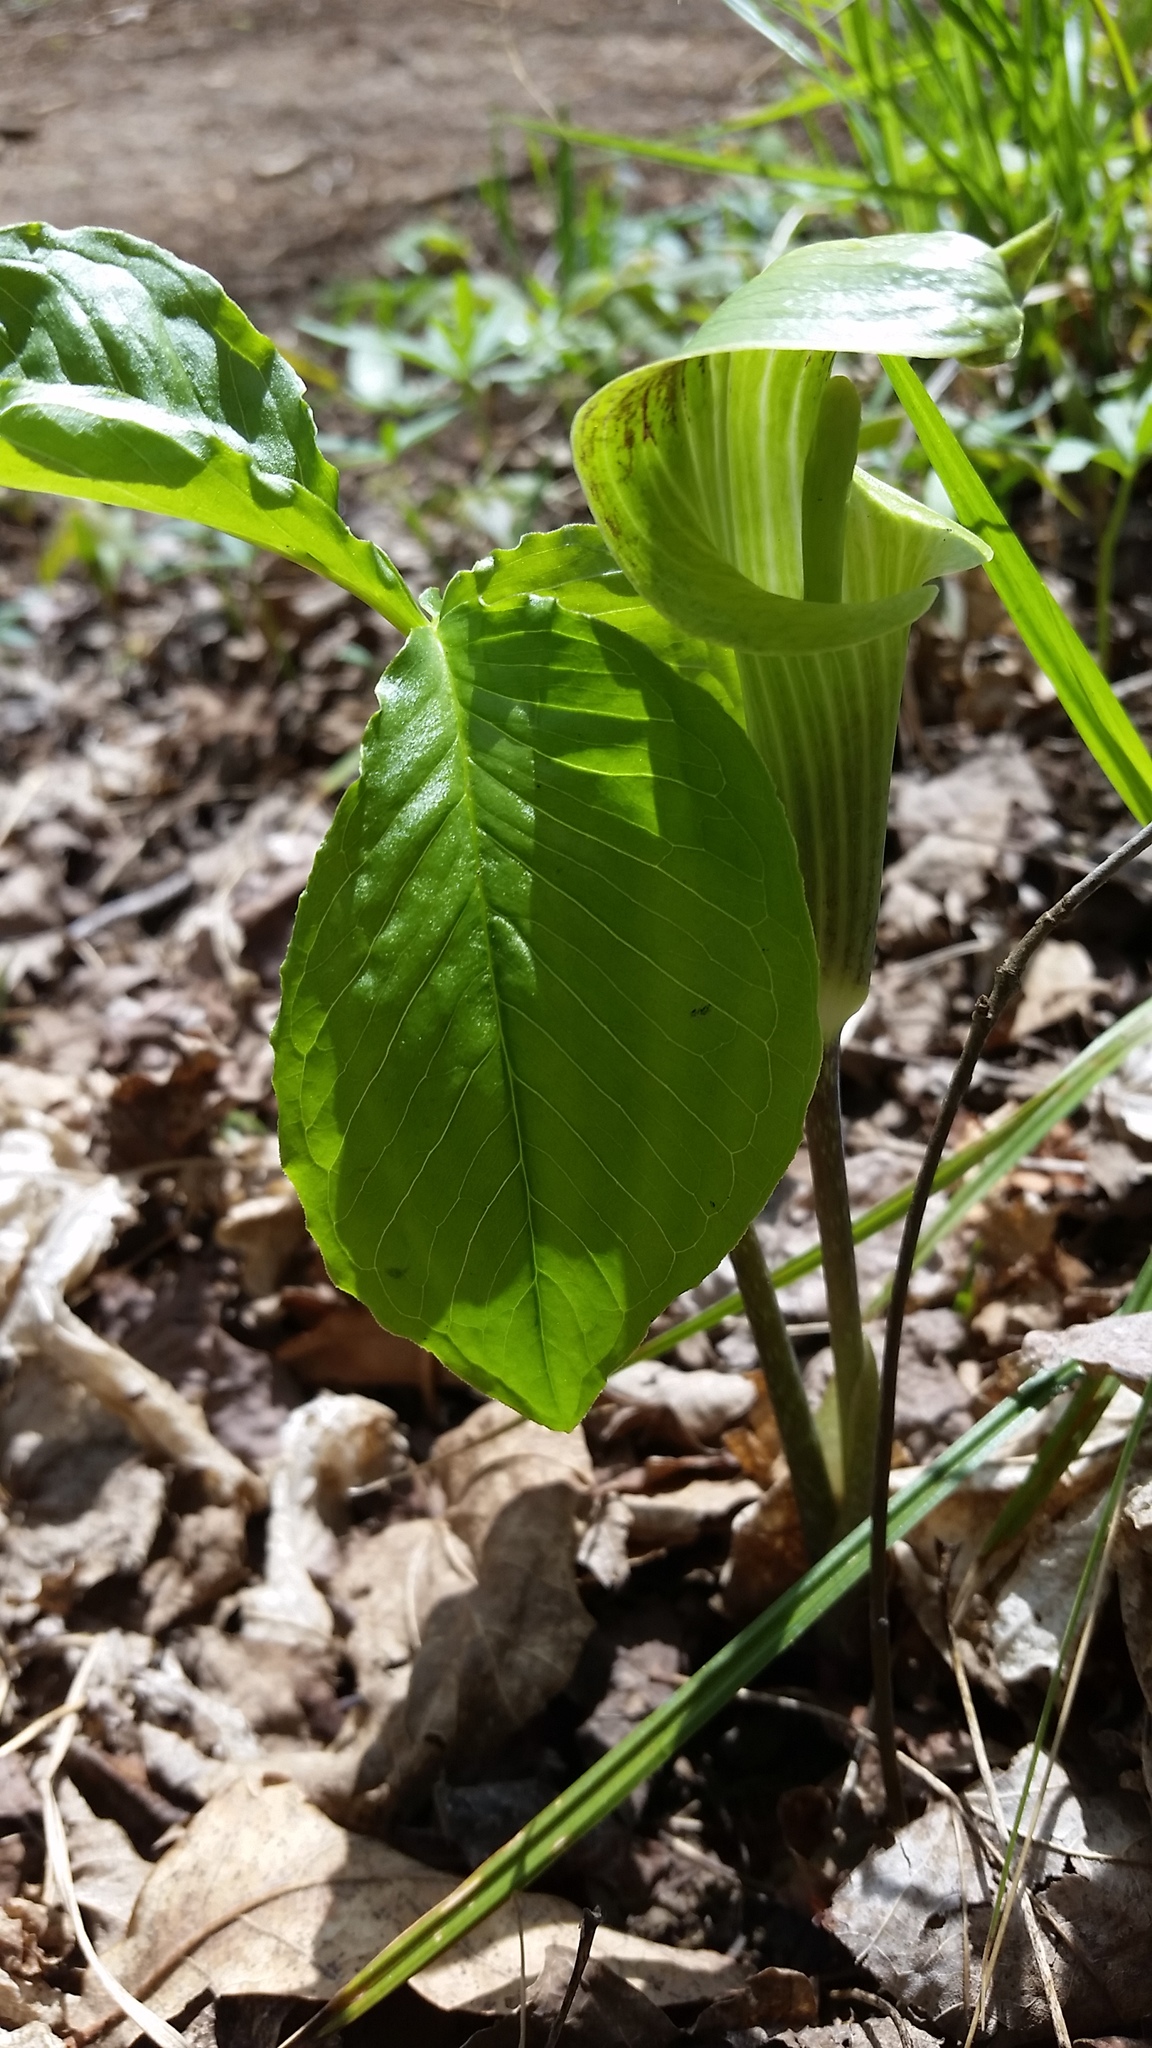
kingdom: Plantae
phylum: Tracheophyta
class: Liliopsida
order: Alismatales
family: Araceae
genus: Arisaema
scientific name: Arisaema triphyllum
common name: Jack-in-the-pulpit
